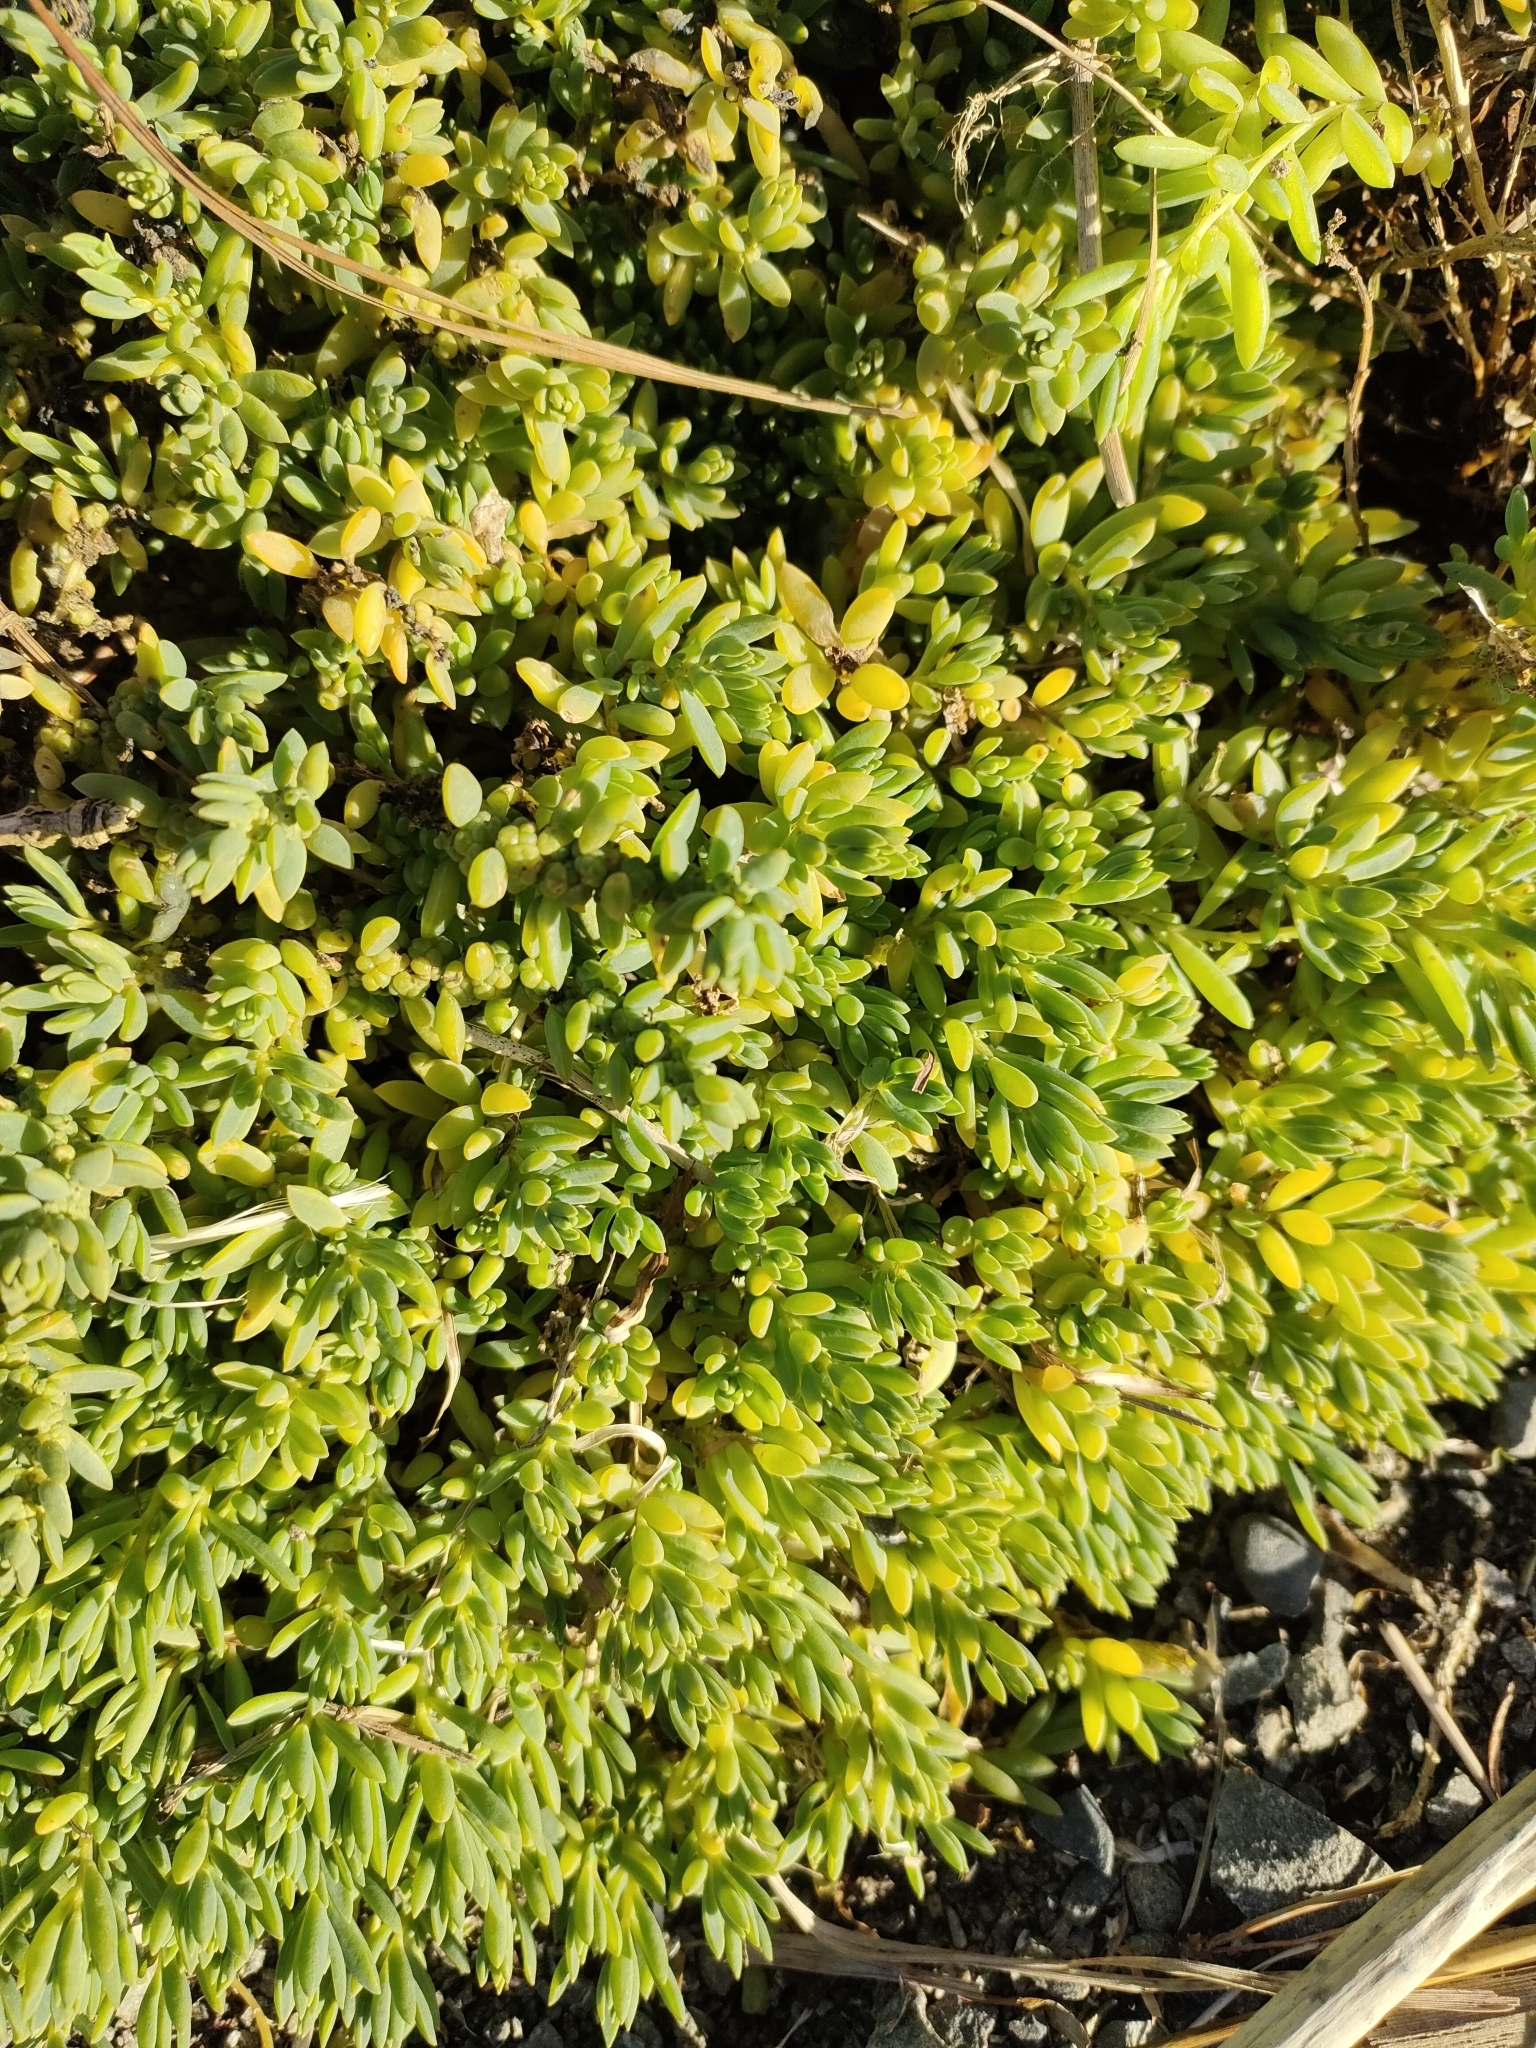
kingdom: Plantae
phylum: Tracheophyta
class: Magnoliopsida
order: Caryophyllales
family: Amaranthaceae
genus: Suaeda
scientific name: Suaeda novae-zelandiae
